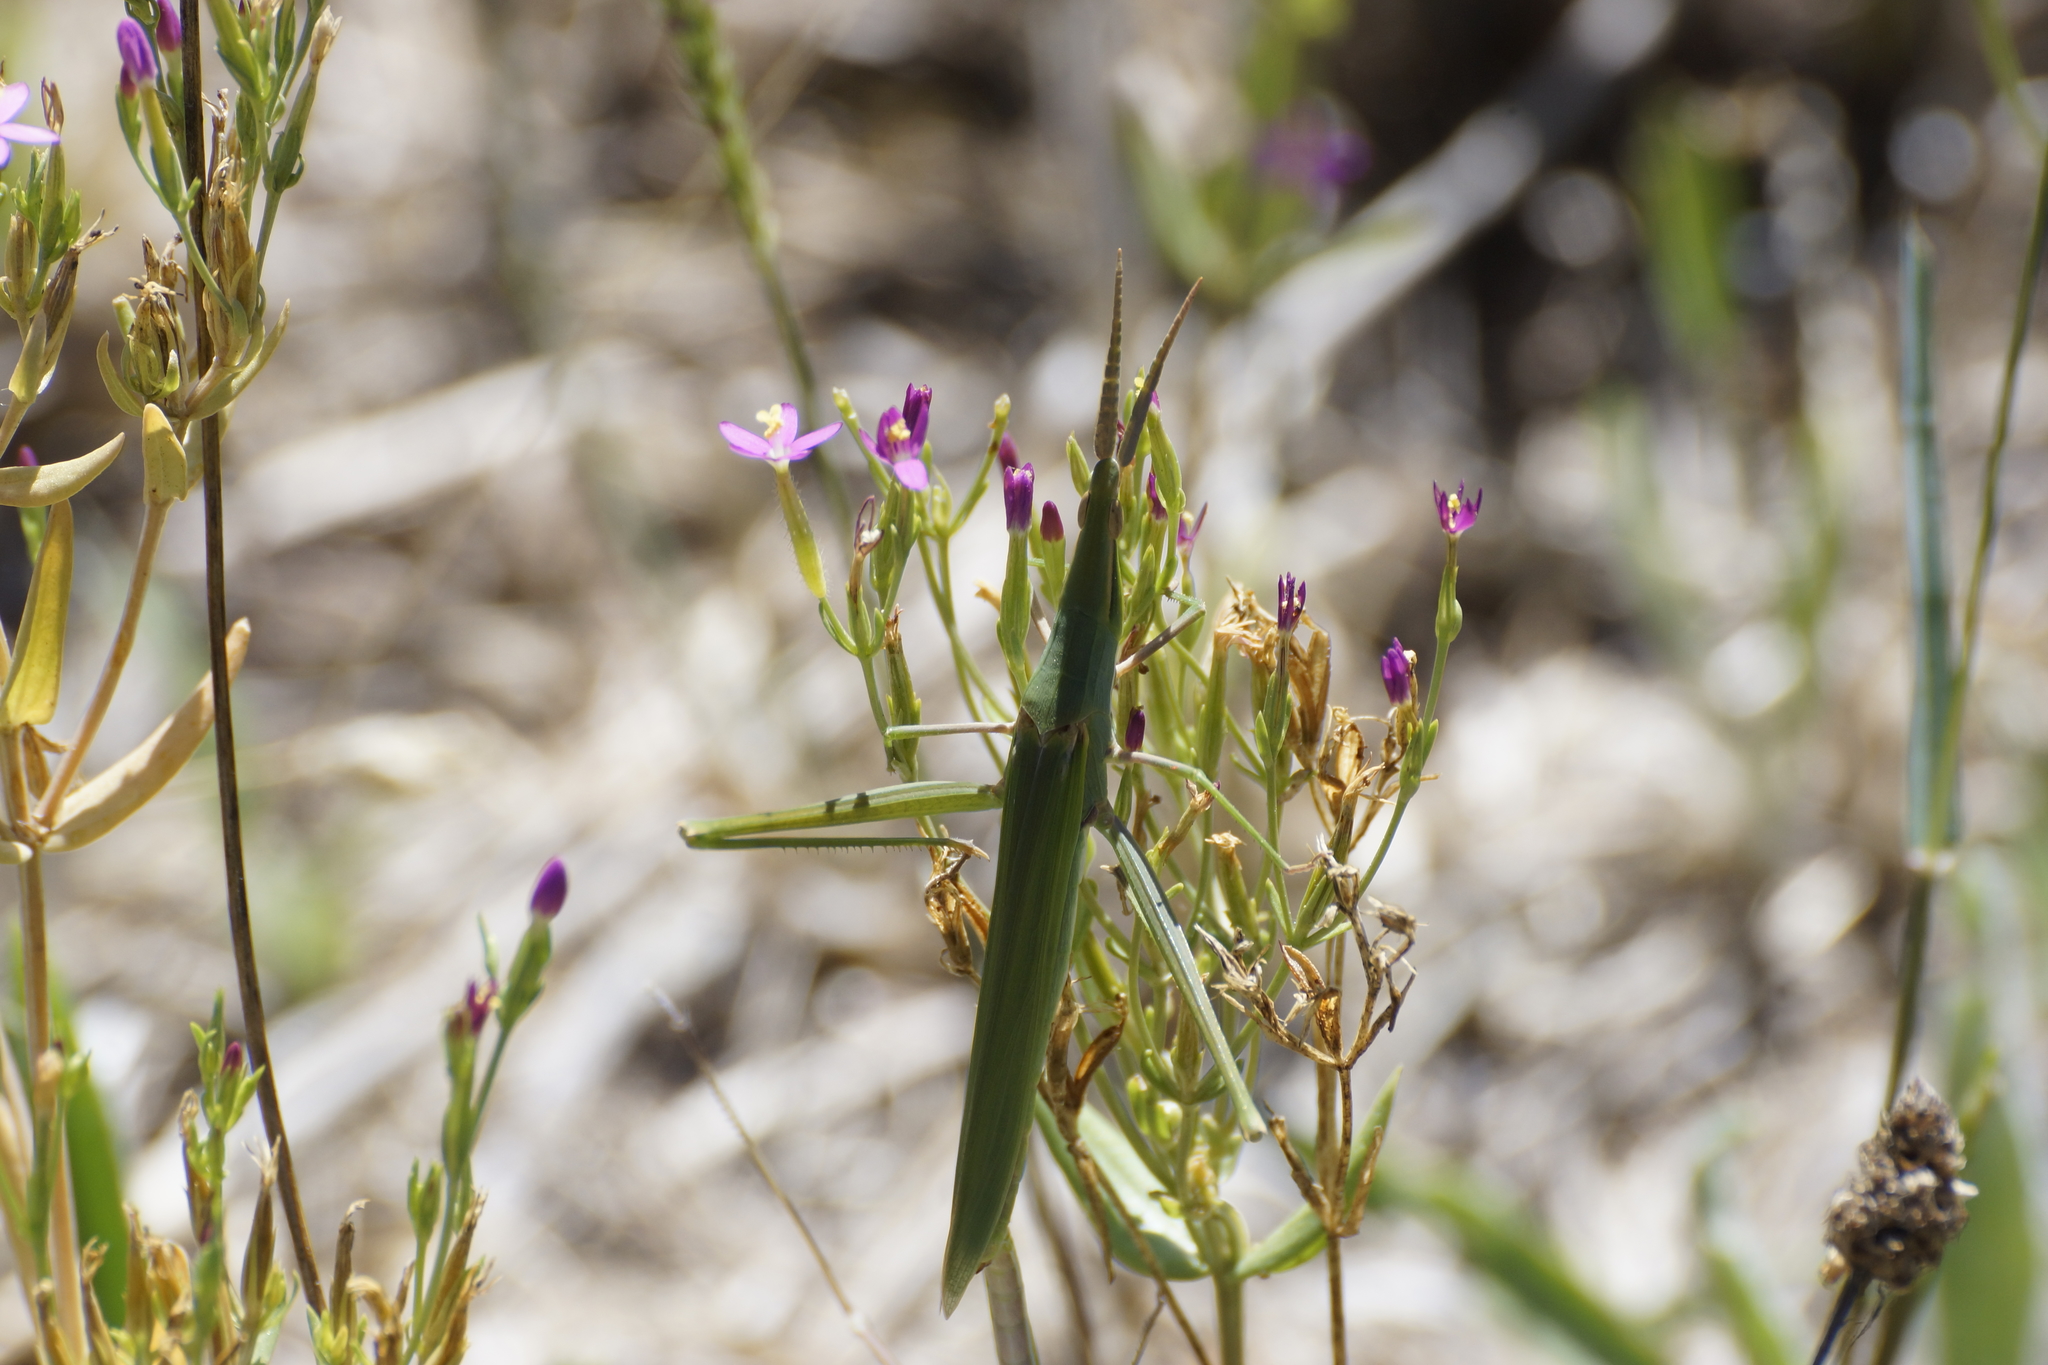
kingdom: Animalia
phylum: Arthropoda
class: Insecta
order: Orthoptera
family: Acrididae
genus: Acrida
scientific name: Acrida conica
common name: Giant green slantface
